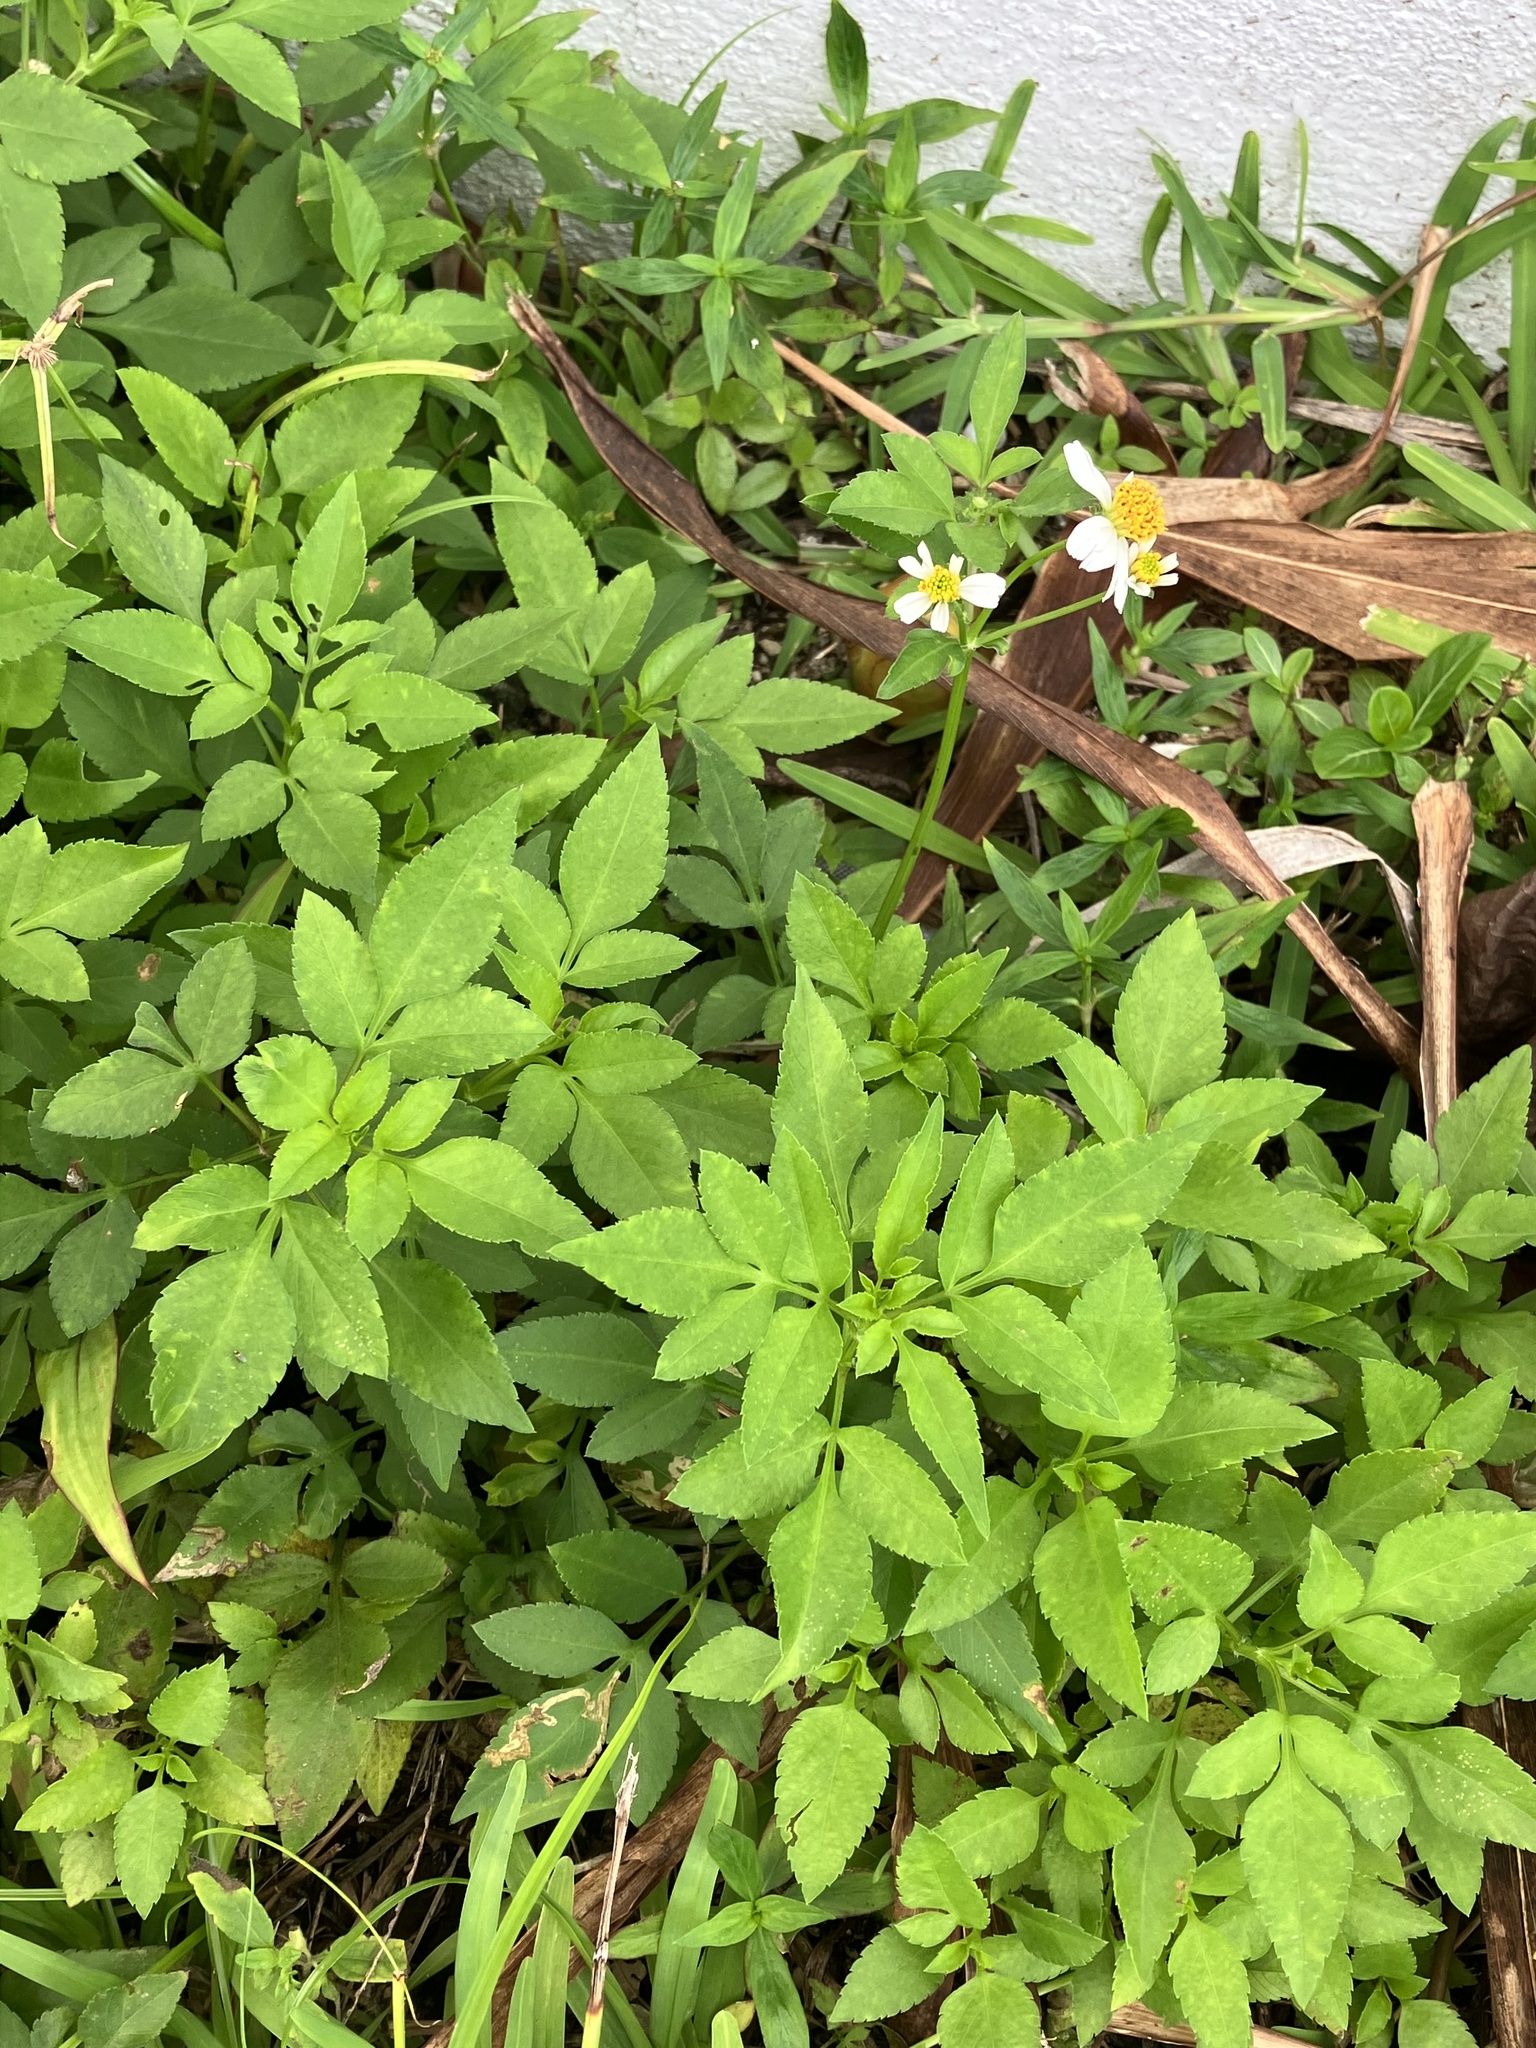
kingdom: Plantae
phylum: Tracheophyta
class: Magnoliopsida
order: Asterales
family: Asteraceae
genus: Bidens
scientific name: Bidens pilosa
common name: Black-jack
